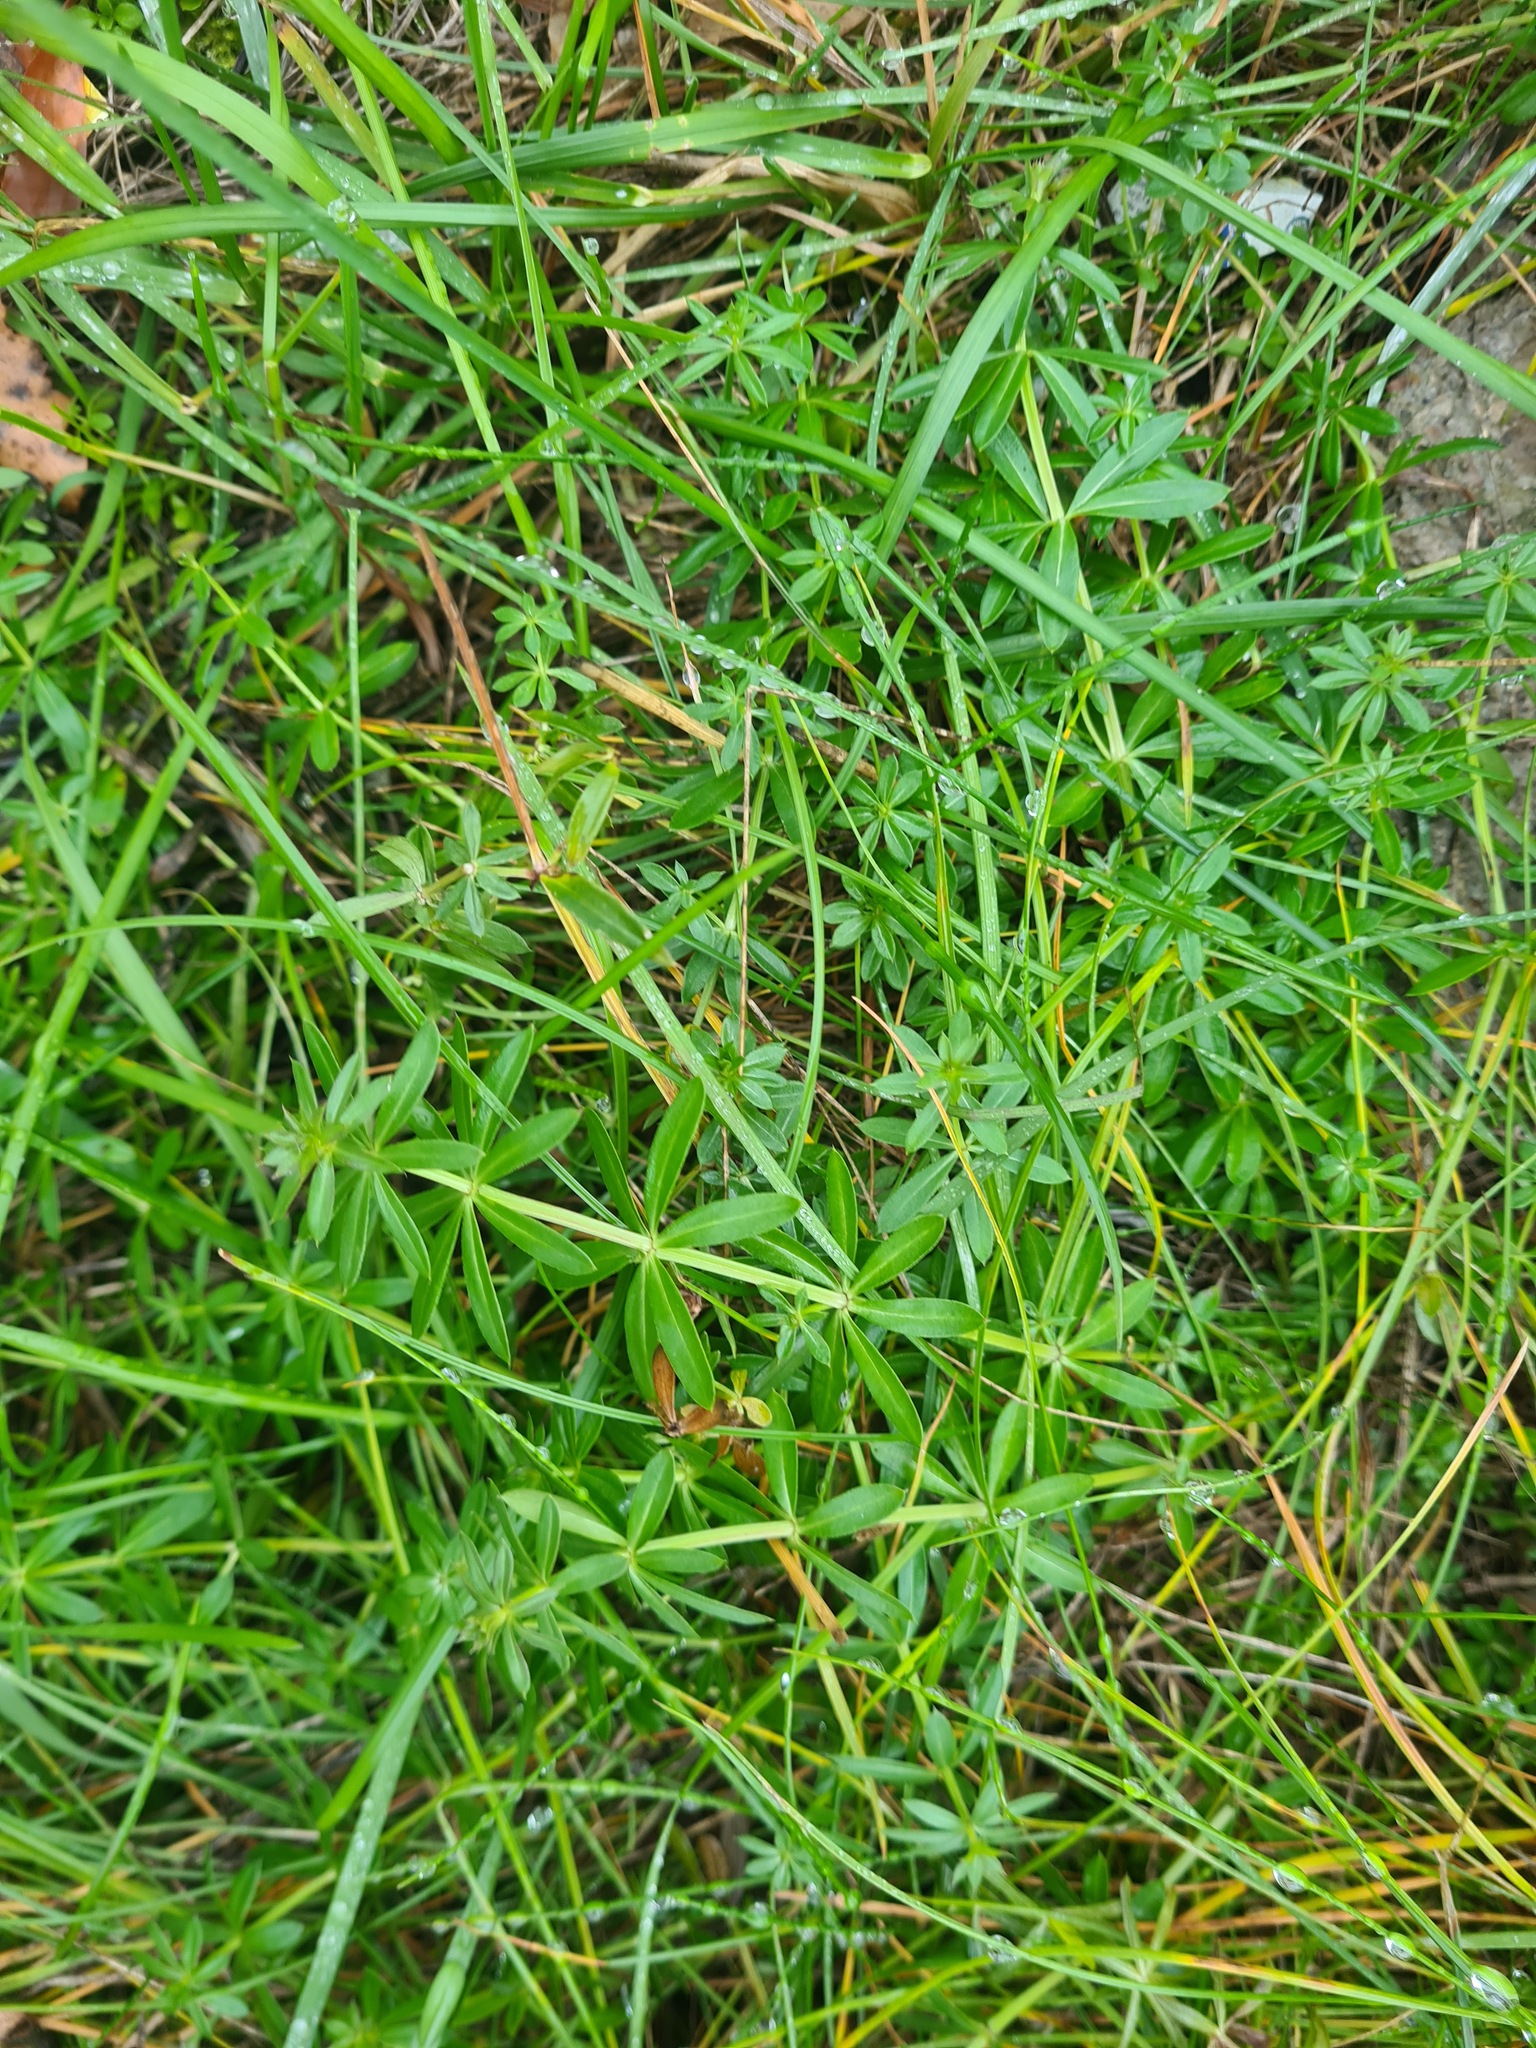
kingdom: Plantae
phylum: Tracheophyta
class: Magnoliopsida
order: Gentianales
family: Rubiaceae
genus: Galium
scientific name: Galium mollugo
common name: Hedge bedstraw
